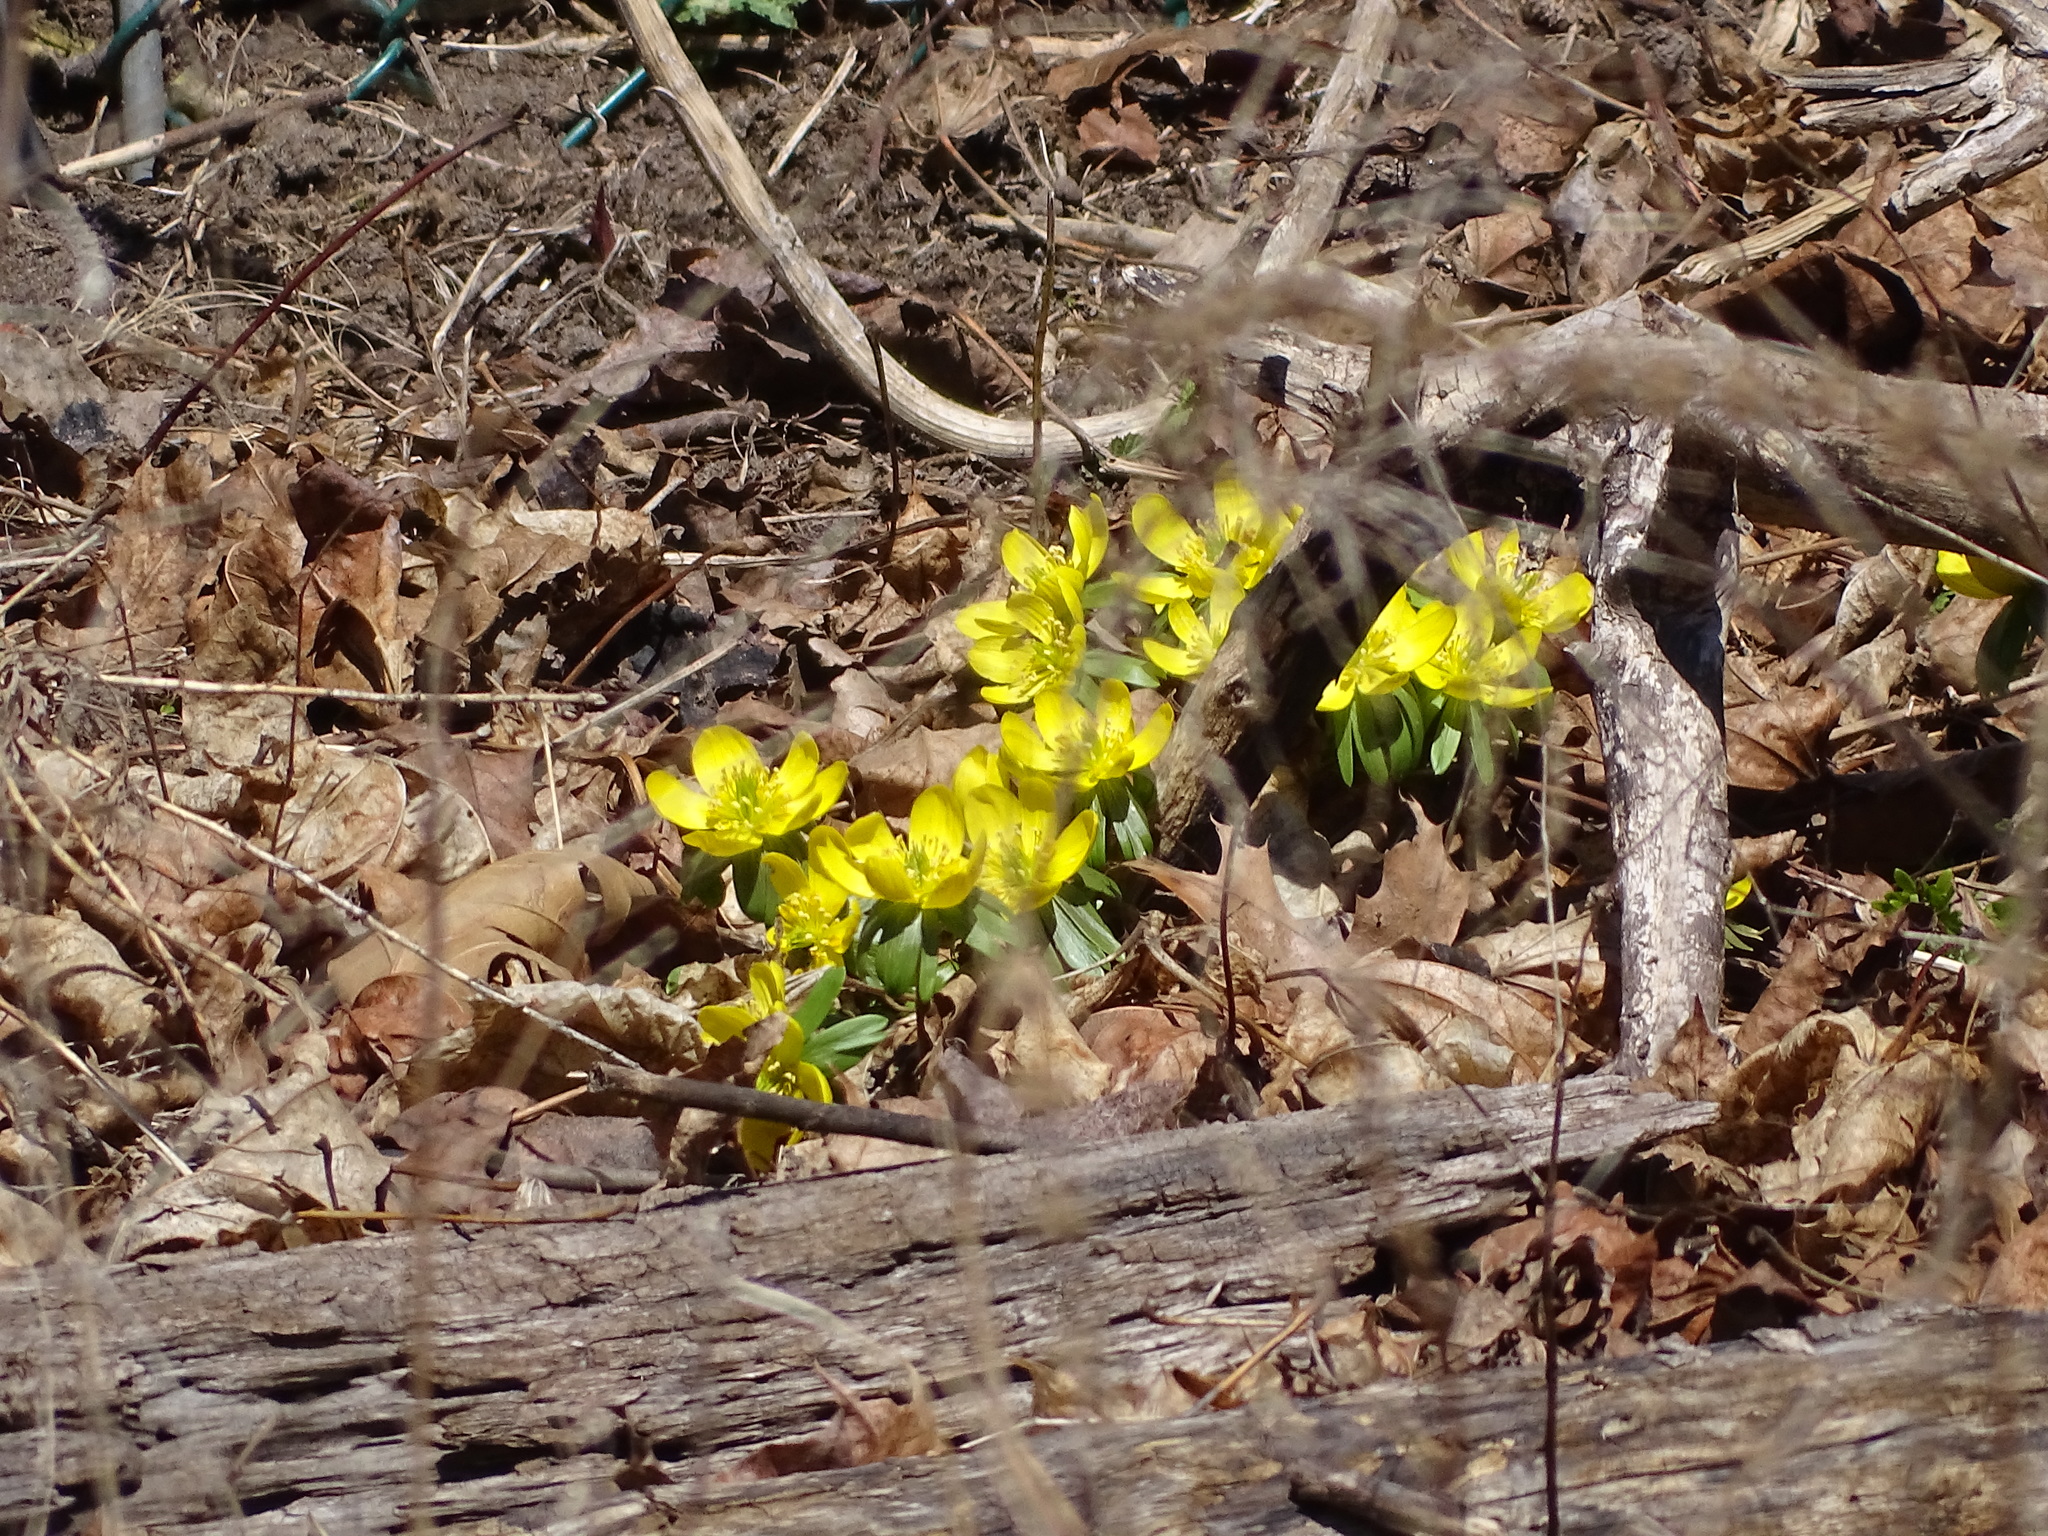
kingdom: Plantae
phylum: Tracheophyta
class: Magnoliopsida
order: Ranunculales
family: Ranunculaceae
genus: Eranthis
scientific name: Eranthis hyemalis
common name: Winter aconite
